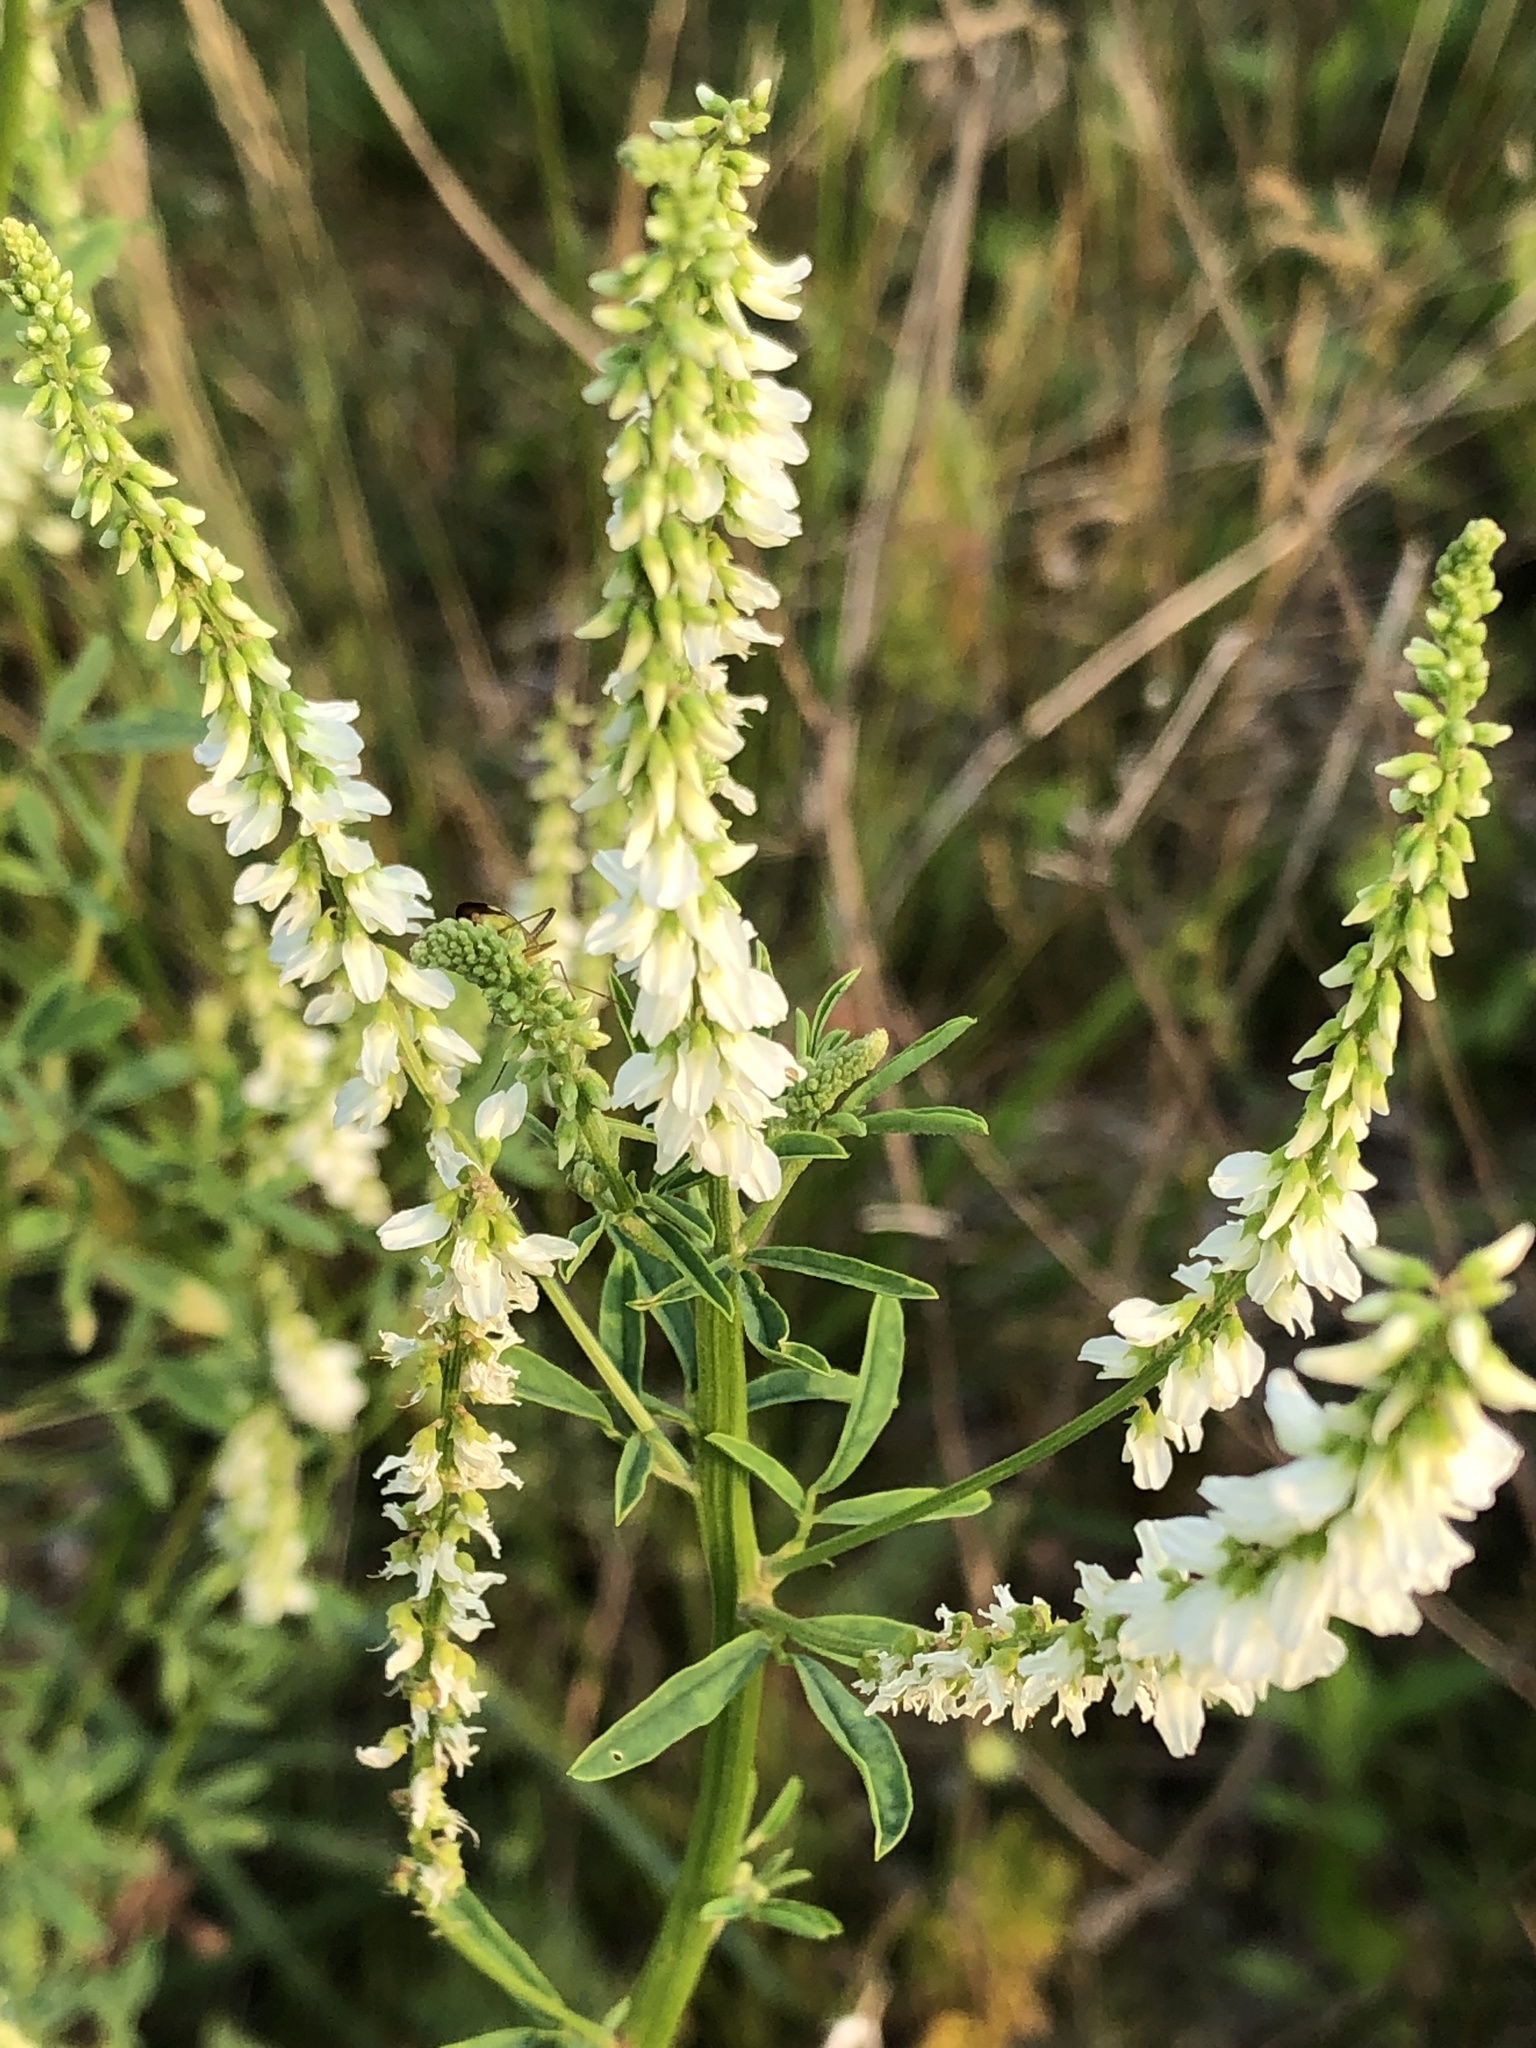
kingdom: Plantae
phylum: Tracheophyta
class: Magnoliopsida
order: Fabales
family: Fabaceae
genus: Melilotus
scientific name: Melilotus albus
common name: White melilot
